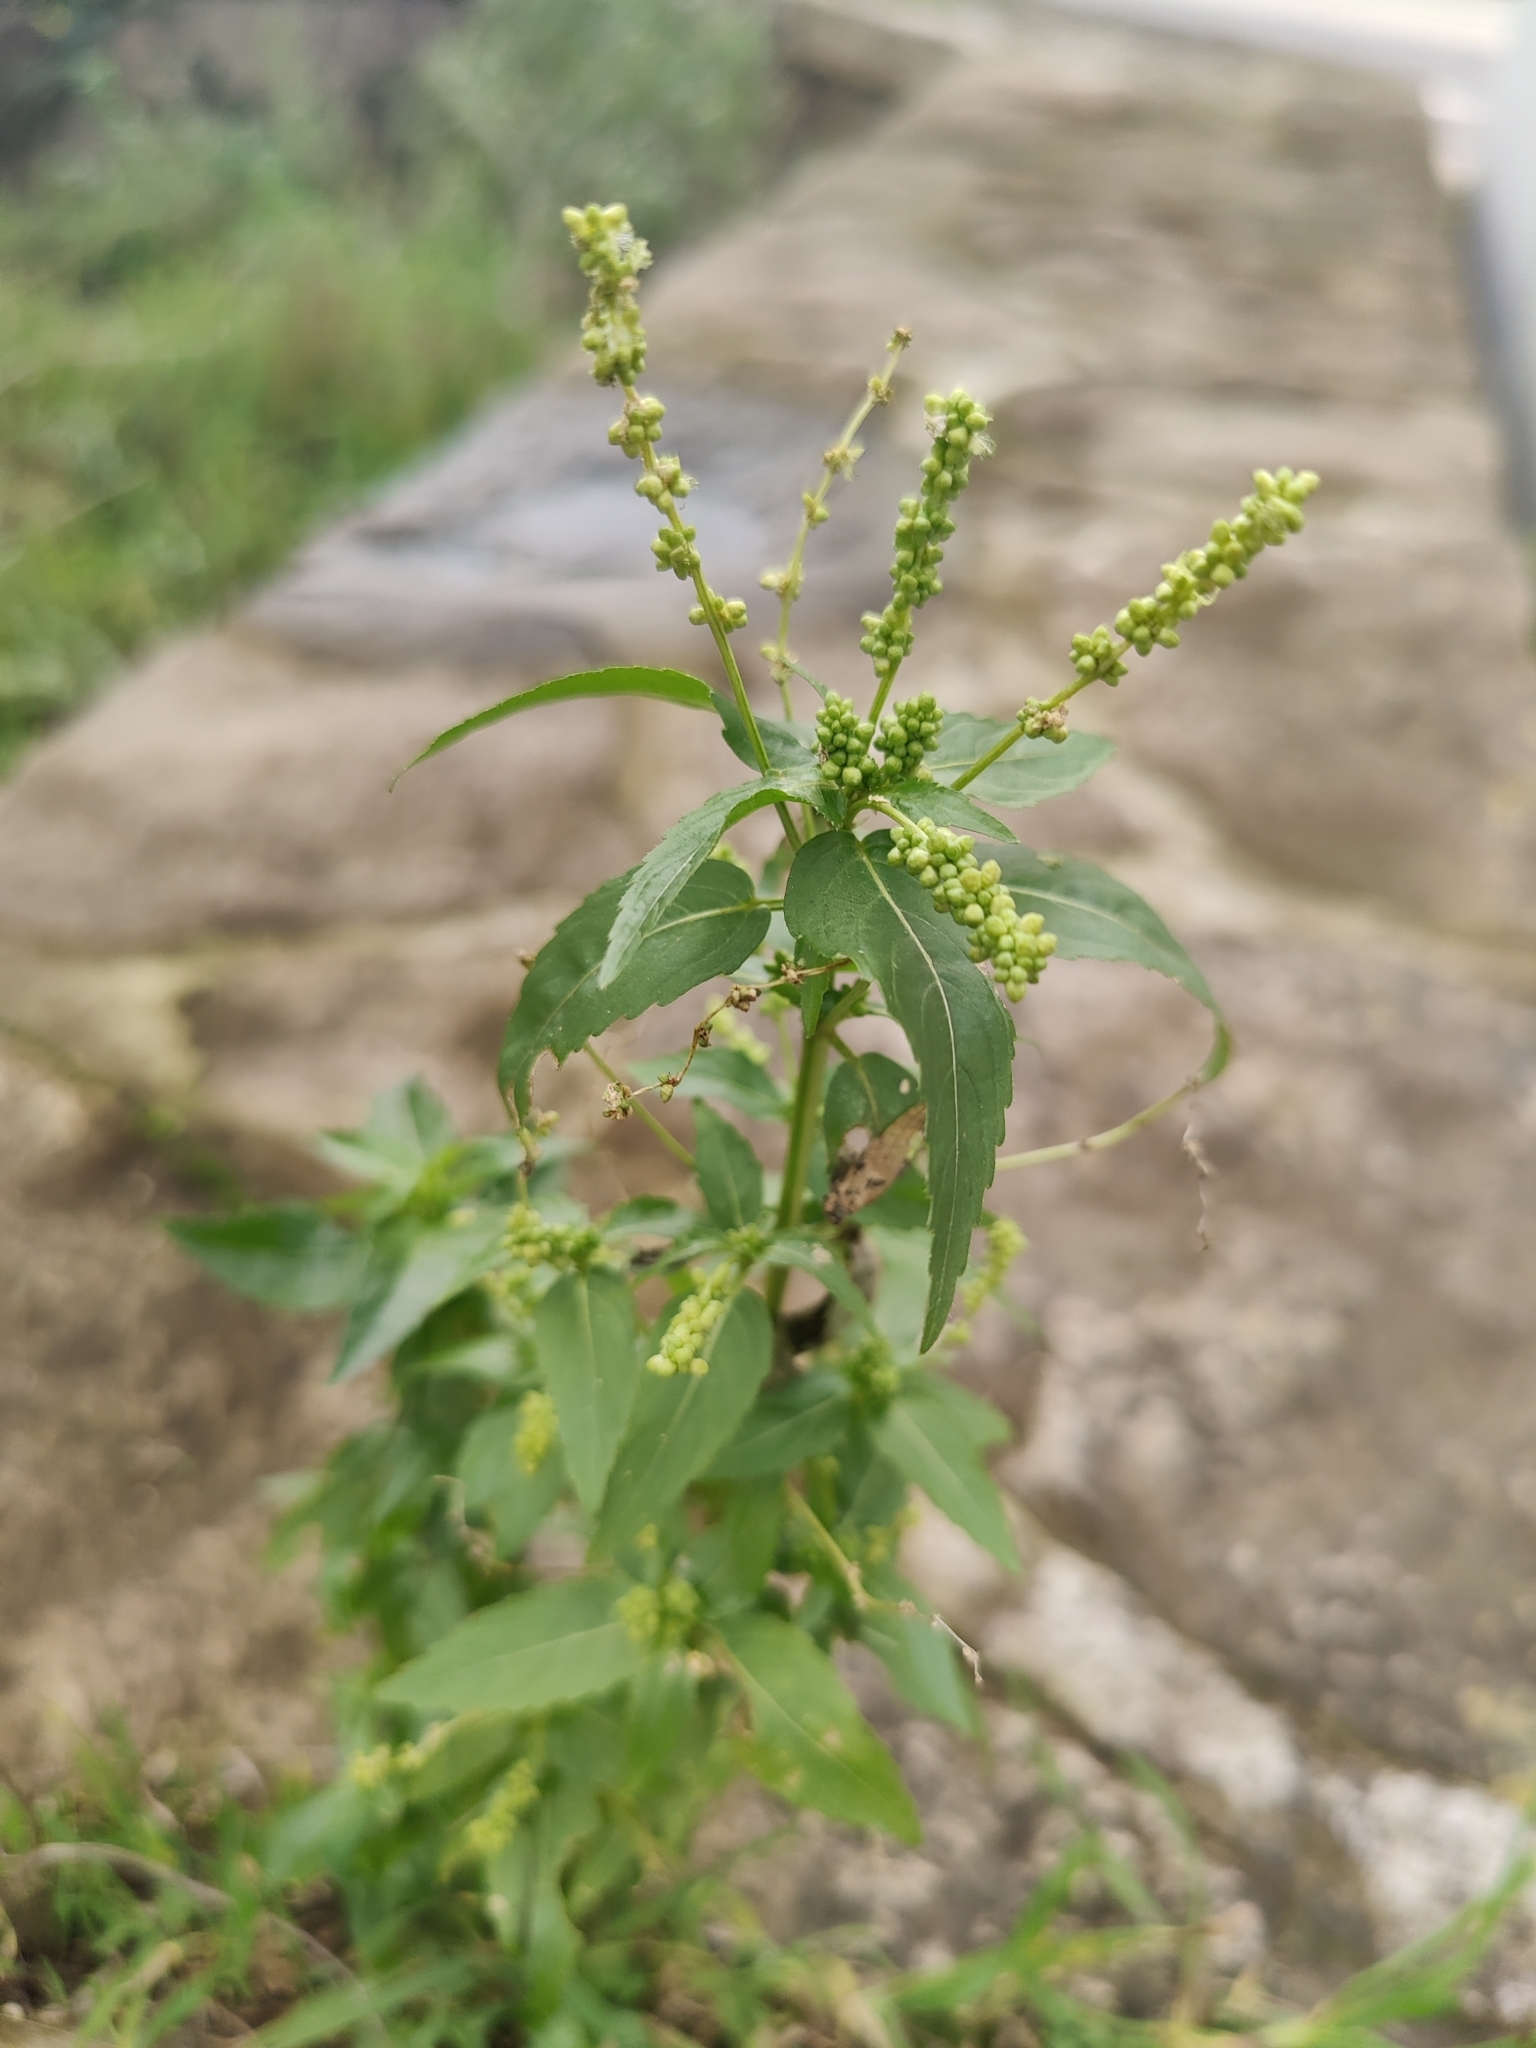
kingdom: Plantae
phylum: Tracheophyta
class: Magnoliopsida
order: Malpighiales
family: Euphorbiaceae
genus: Mercurialis
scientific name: Mercurialis annua
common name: Annual mercury
